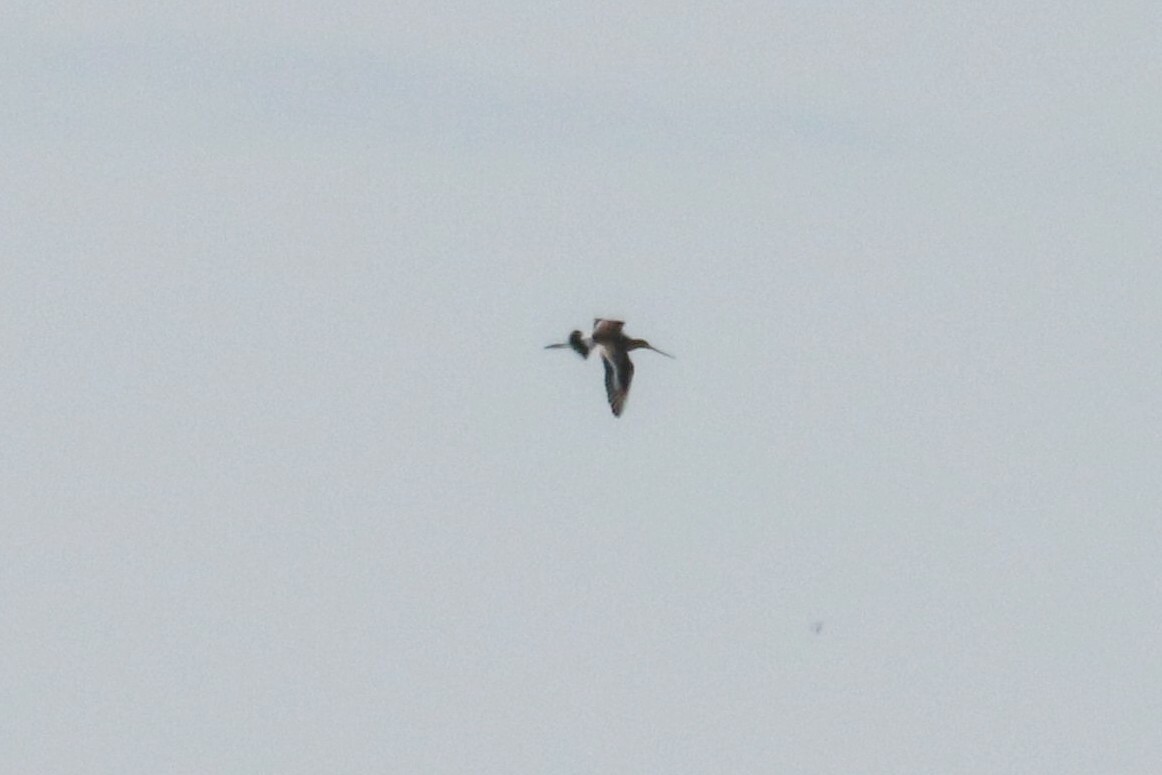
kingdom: Animalia
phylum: Chordata
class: Aves
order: Charadriiformes
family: Scolopacidae
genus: Limosa
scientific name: Limosa limosa
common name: Black-tailed godwit
